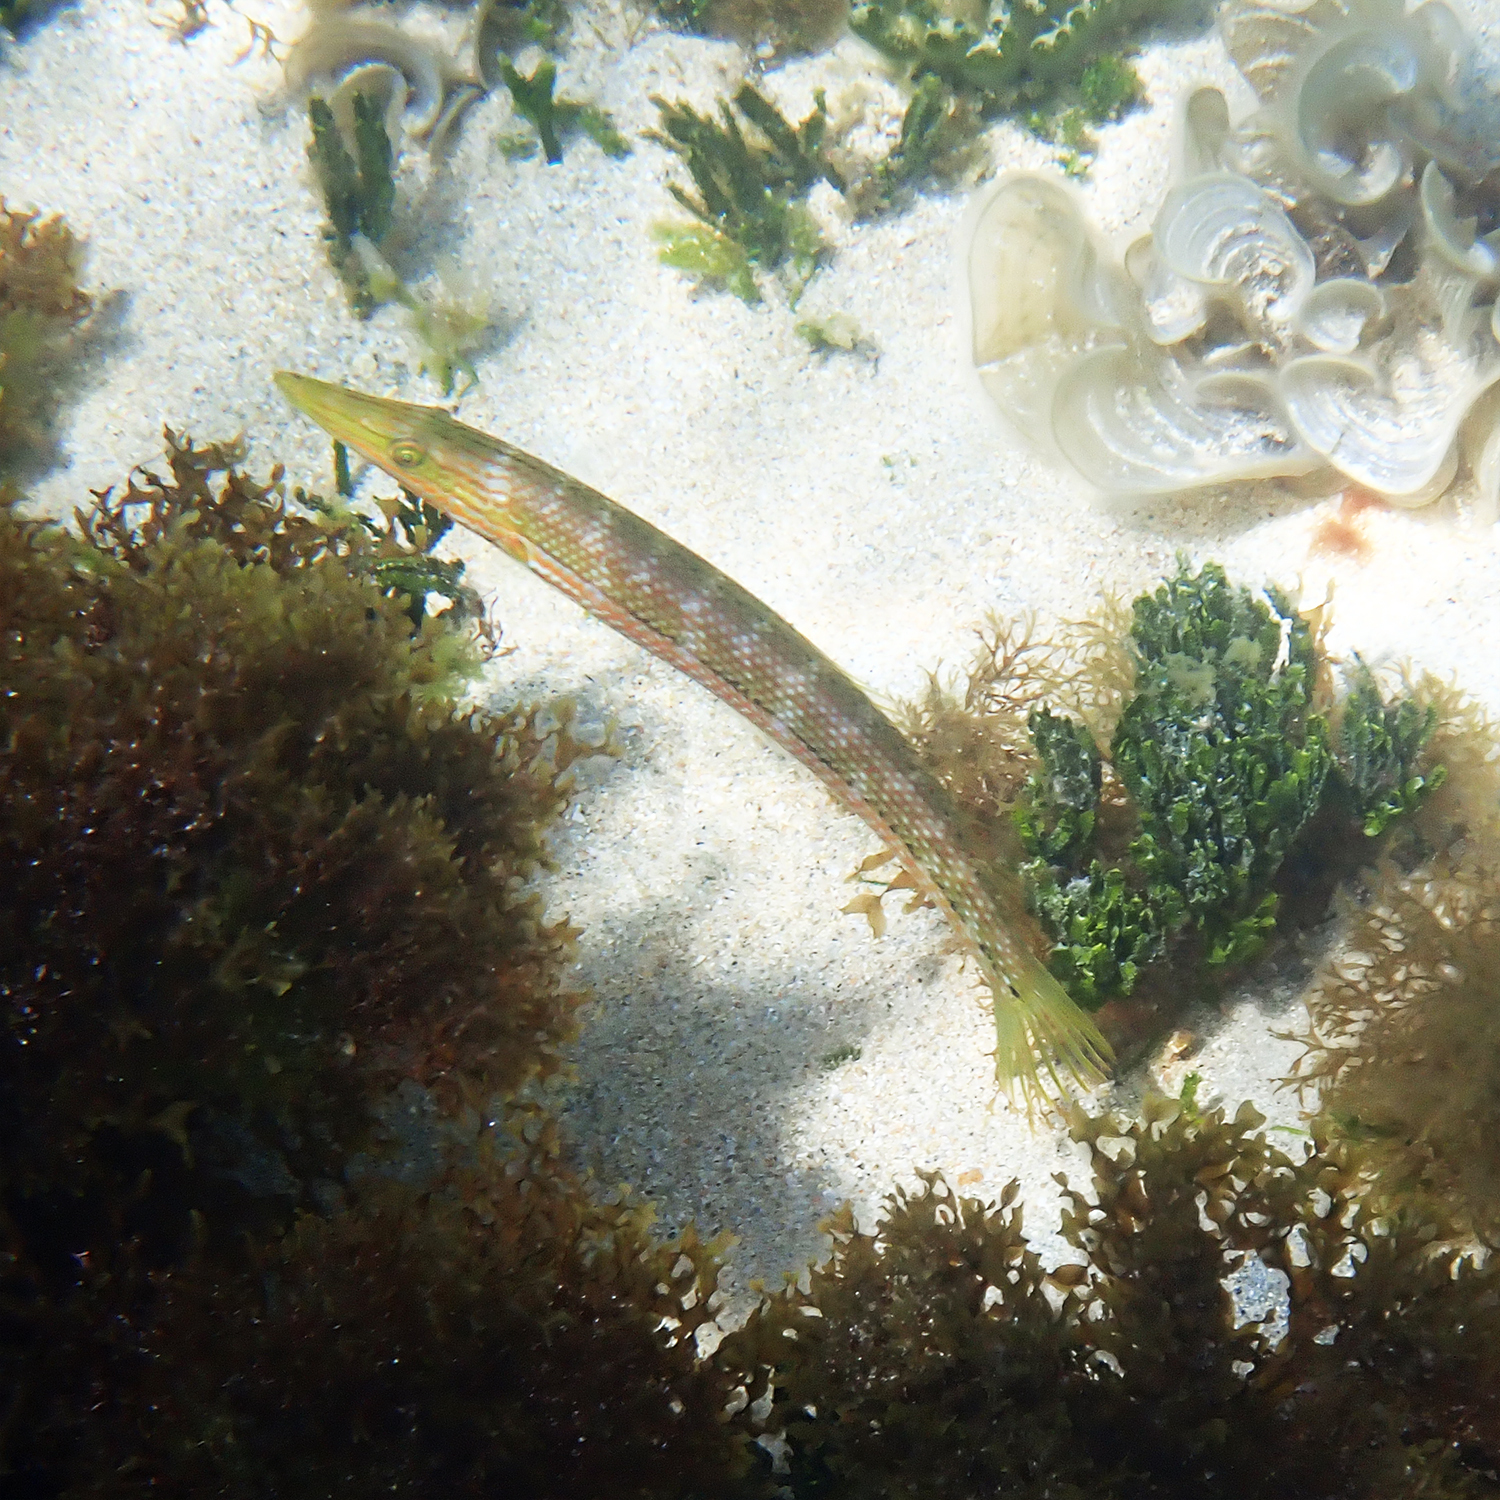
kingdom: Animalia
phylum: Chordata
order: Perciformes
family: Labridae
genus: Cheilio
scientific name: Cheilio inermis
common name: Cigar wrasse
